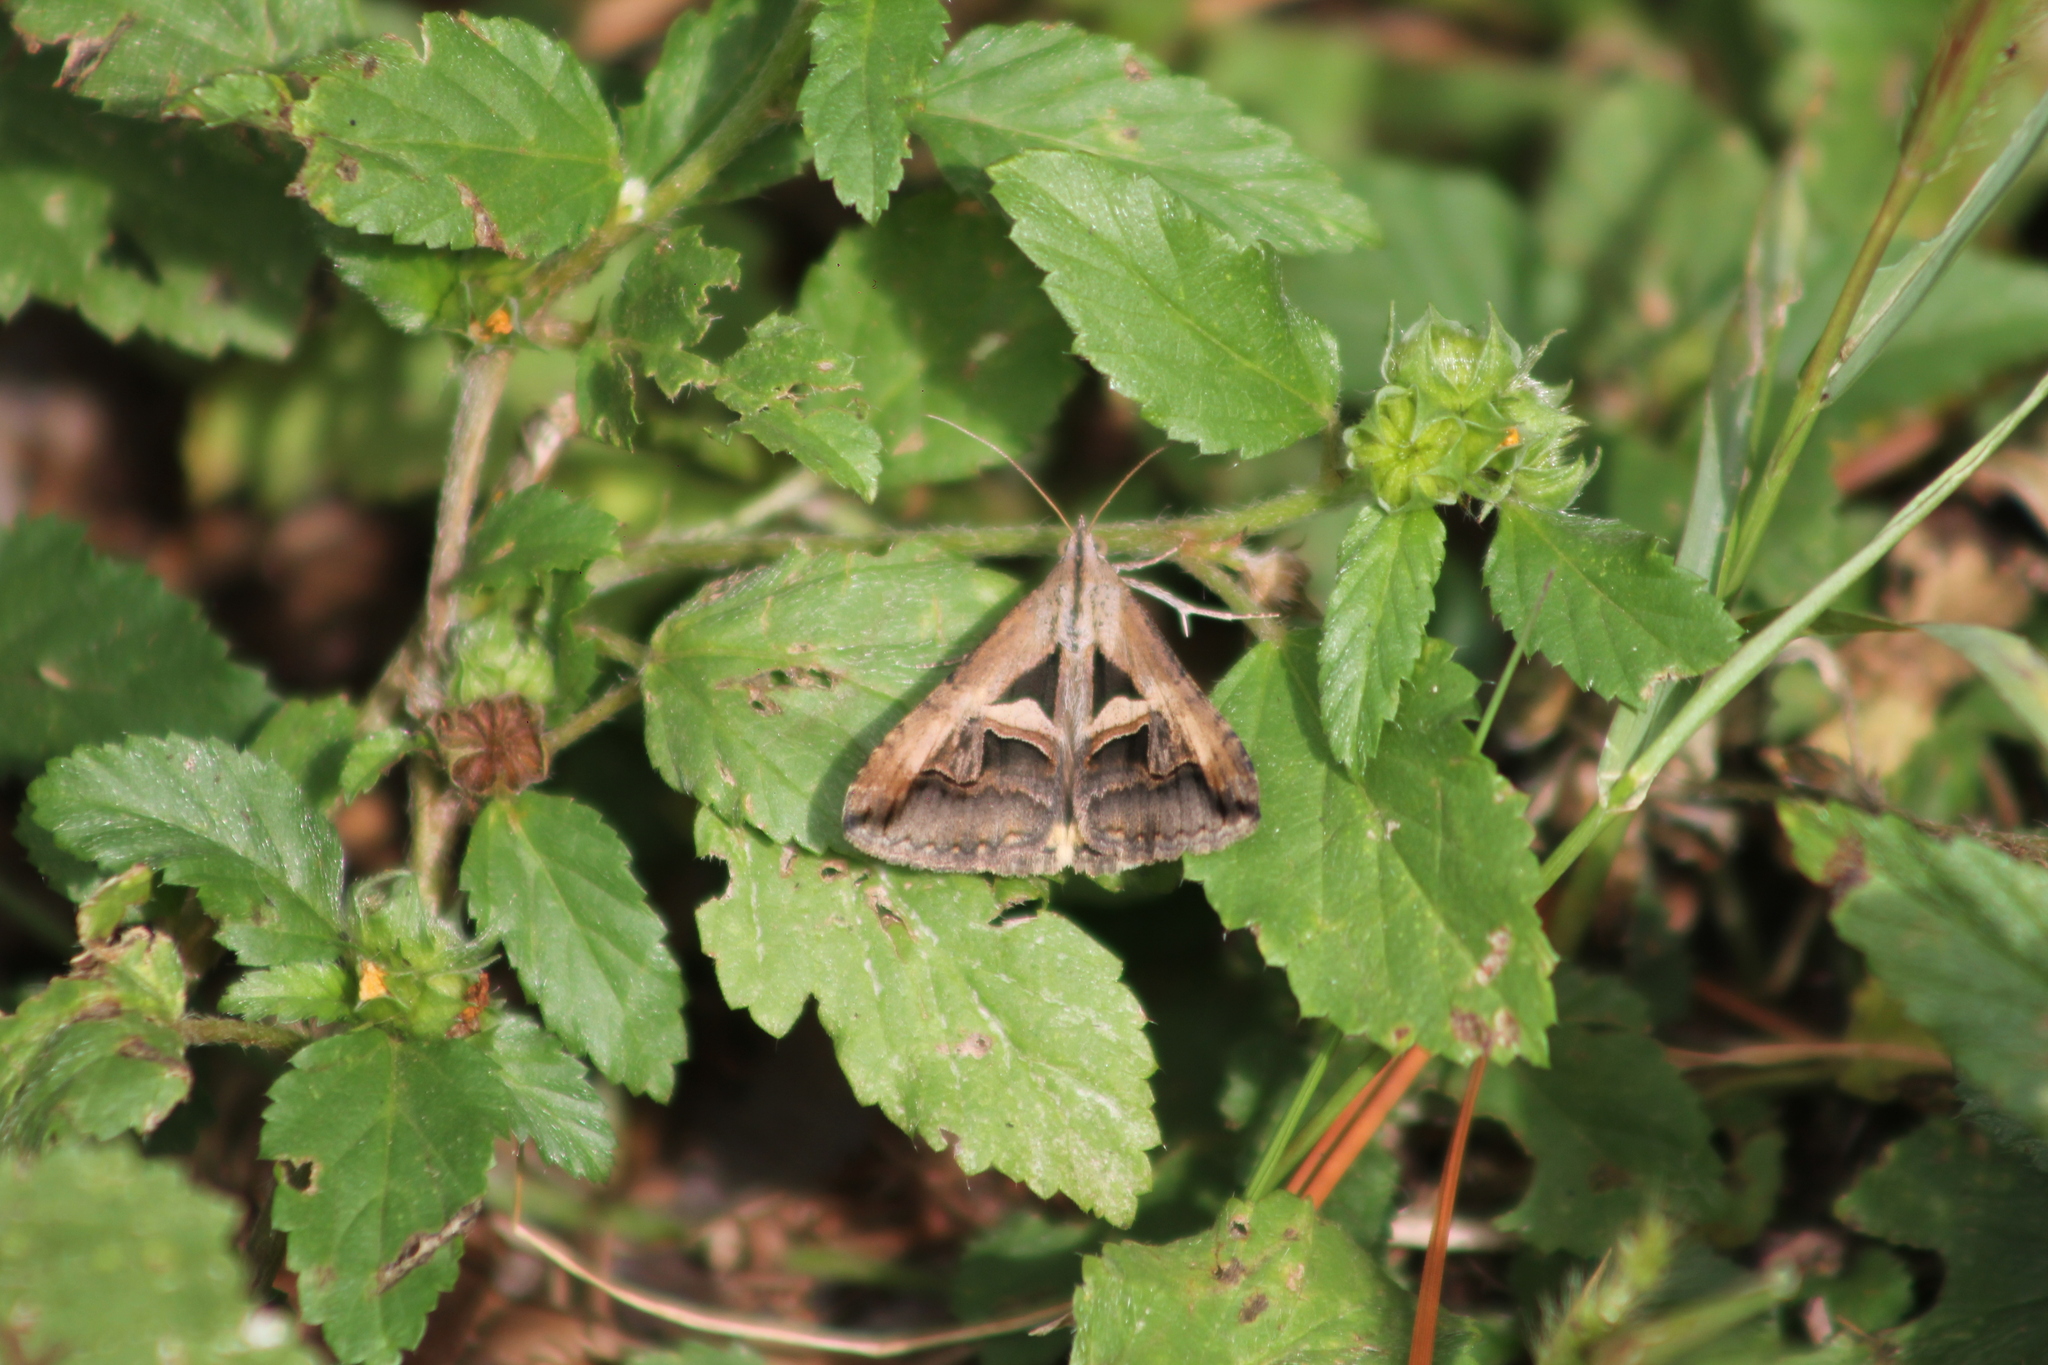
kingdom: Animalia
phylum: Arthropoda
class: Insecta
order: Lepidoptera
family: Erebidae
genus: Melipotis
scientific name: Melipotis cellaris
